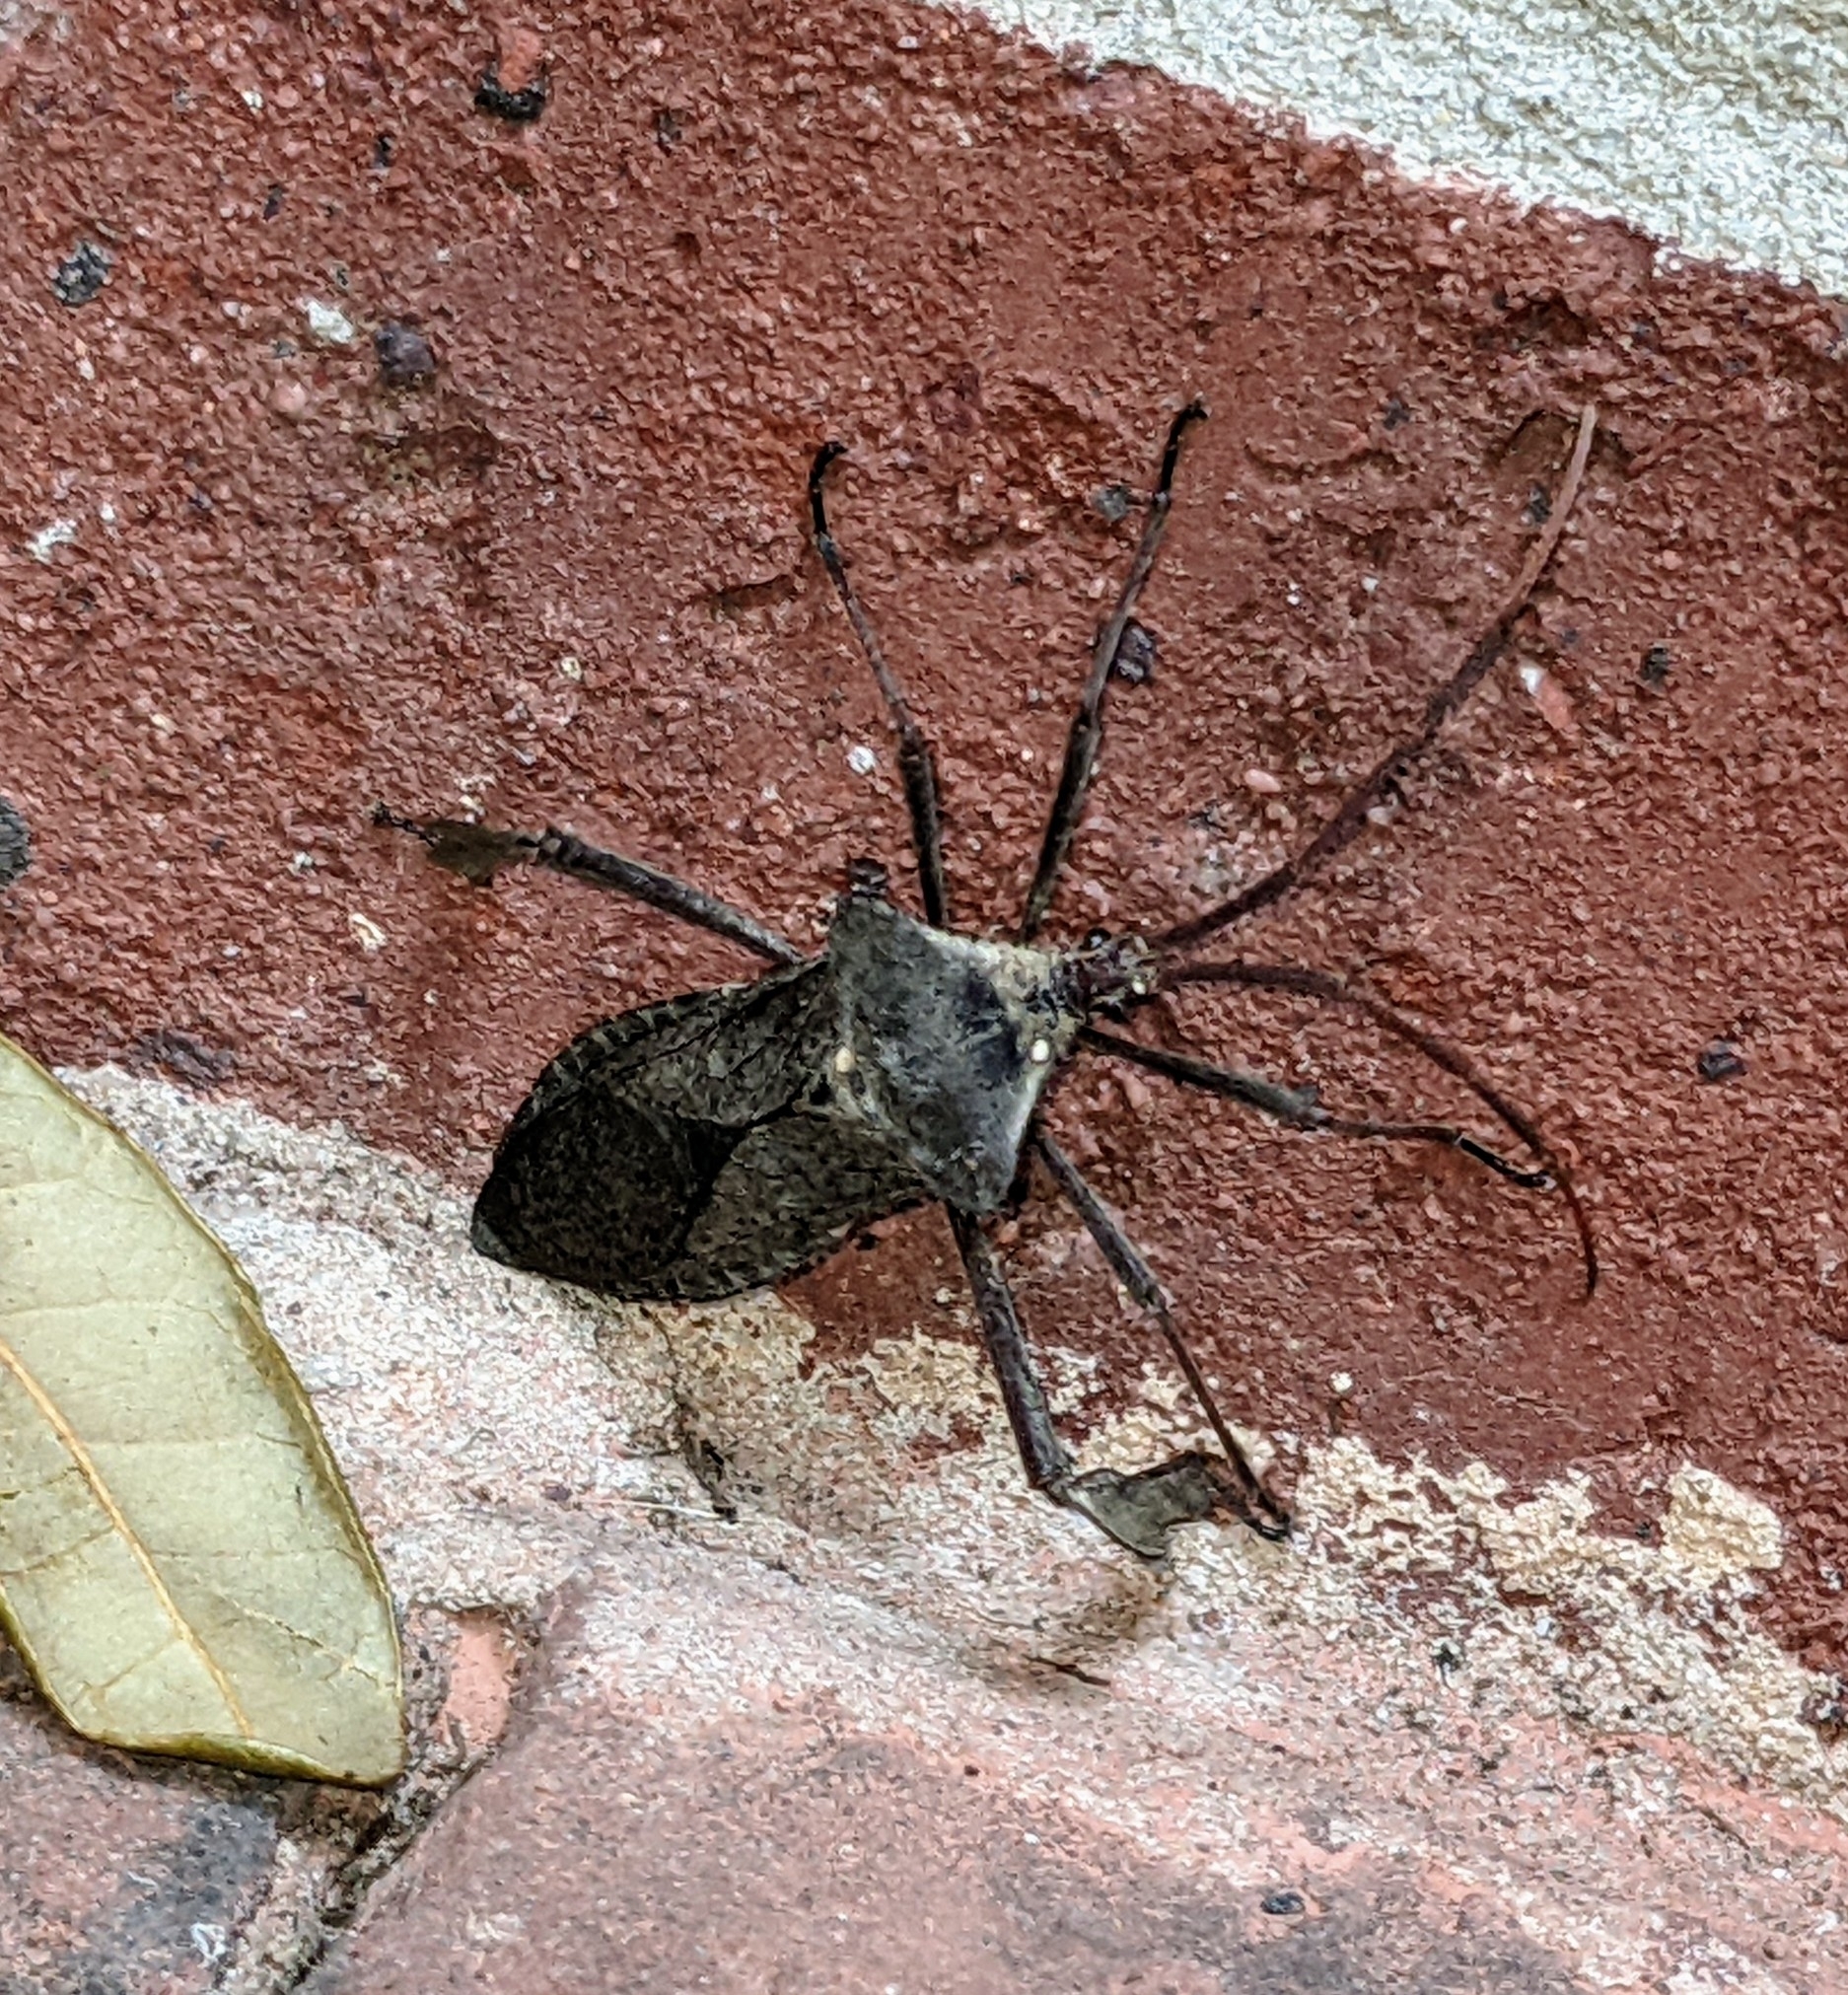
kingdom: Animalia
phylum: Arthropoda
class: Insecta
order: Hemiptera
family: Coreidae
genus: Acanthocephala
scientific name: Acanthocephala declivis
